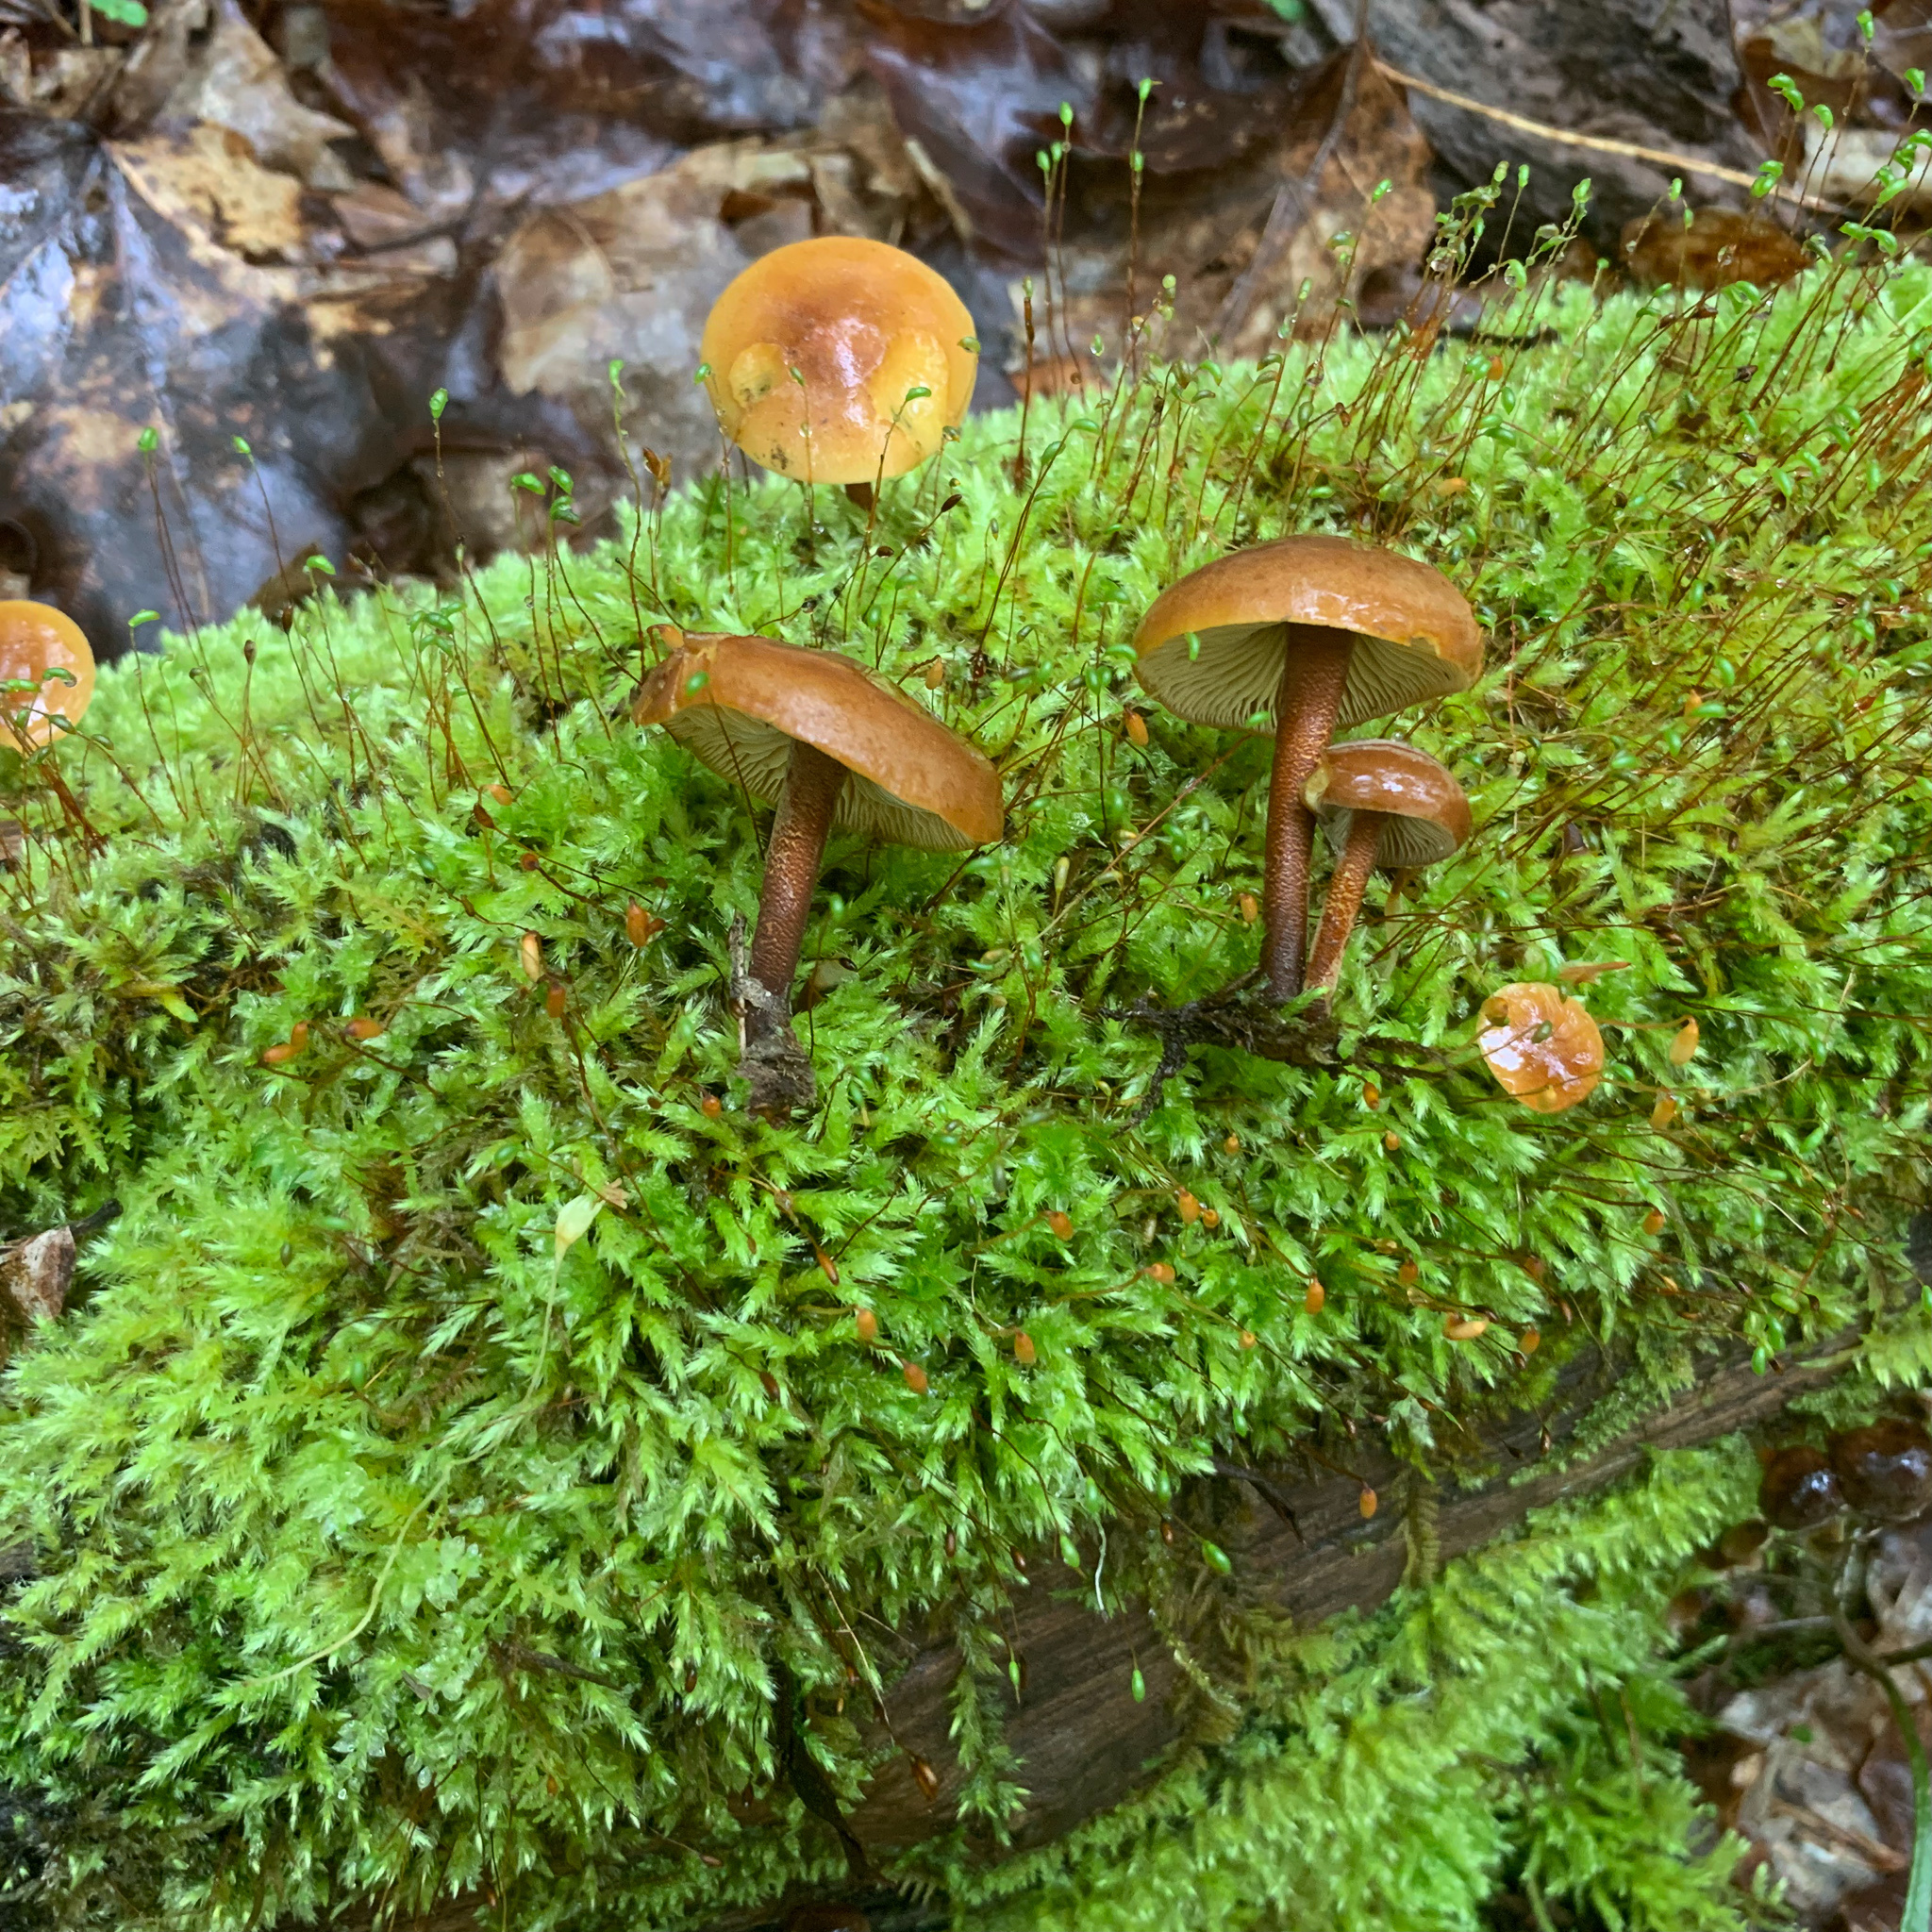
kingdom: Fungi
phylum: Basidiomycota
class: Agaricomycetes
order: Agaricales
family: Mycenaceae
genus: Xeromphalina
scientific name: Xeromphalina tenuipes
